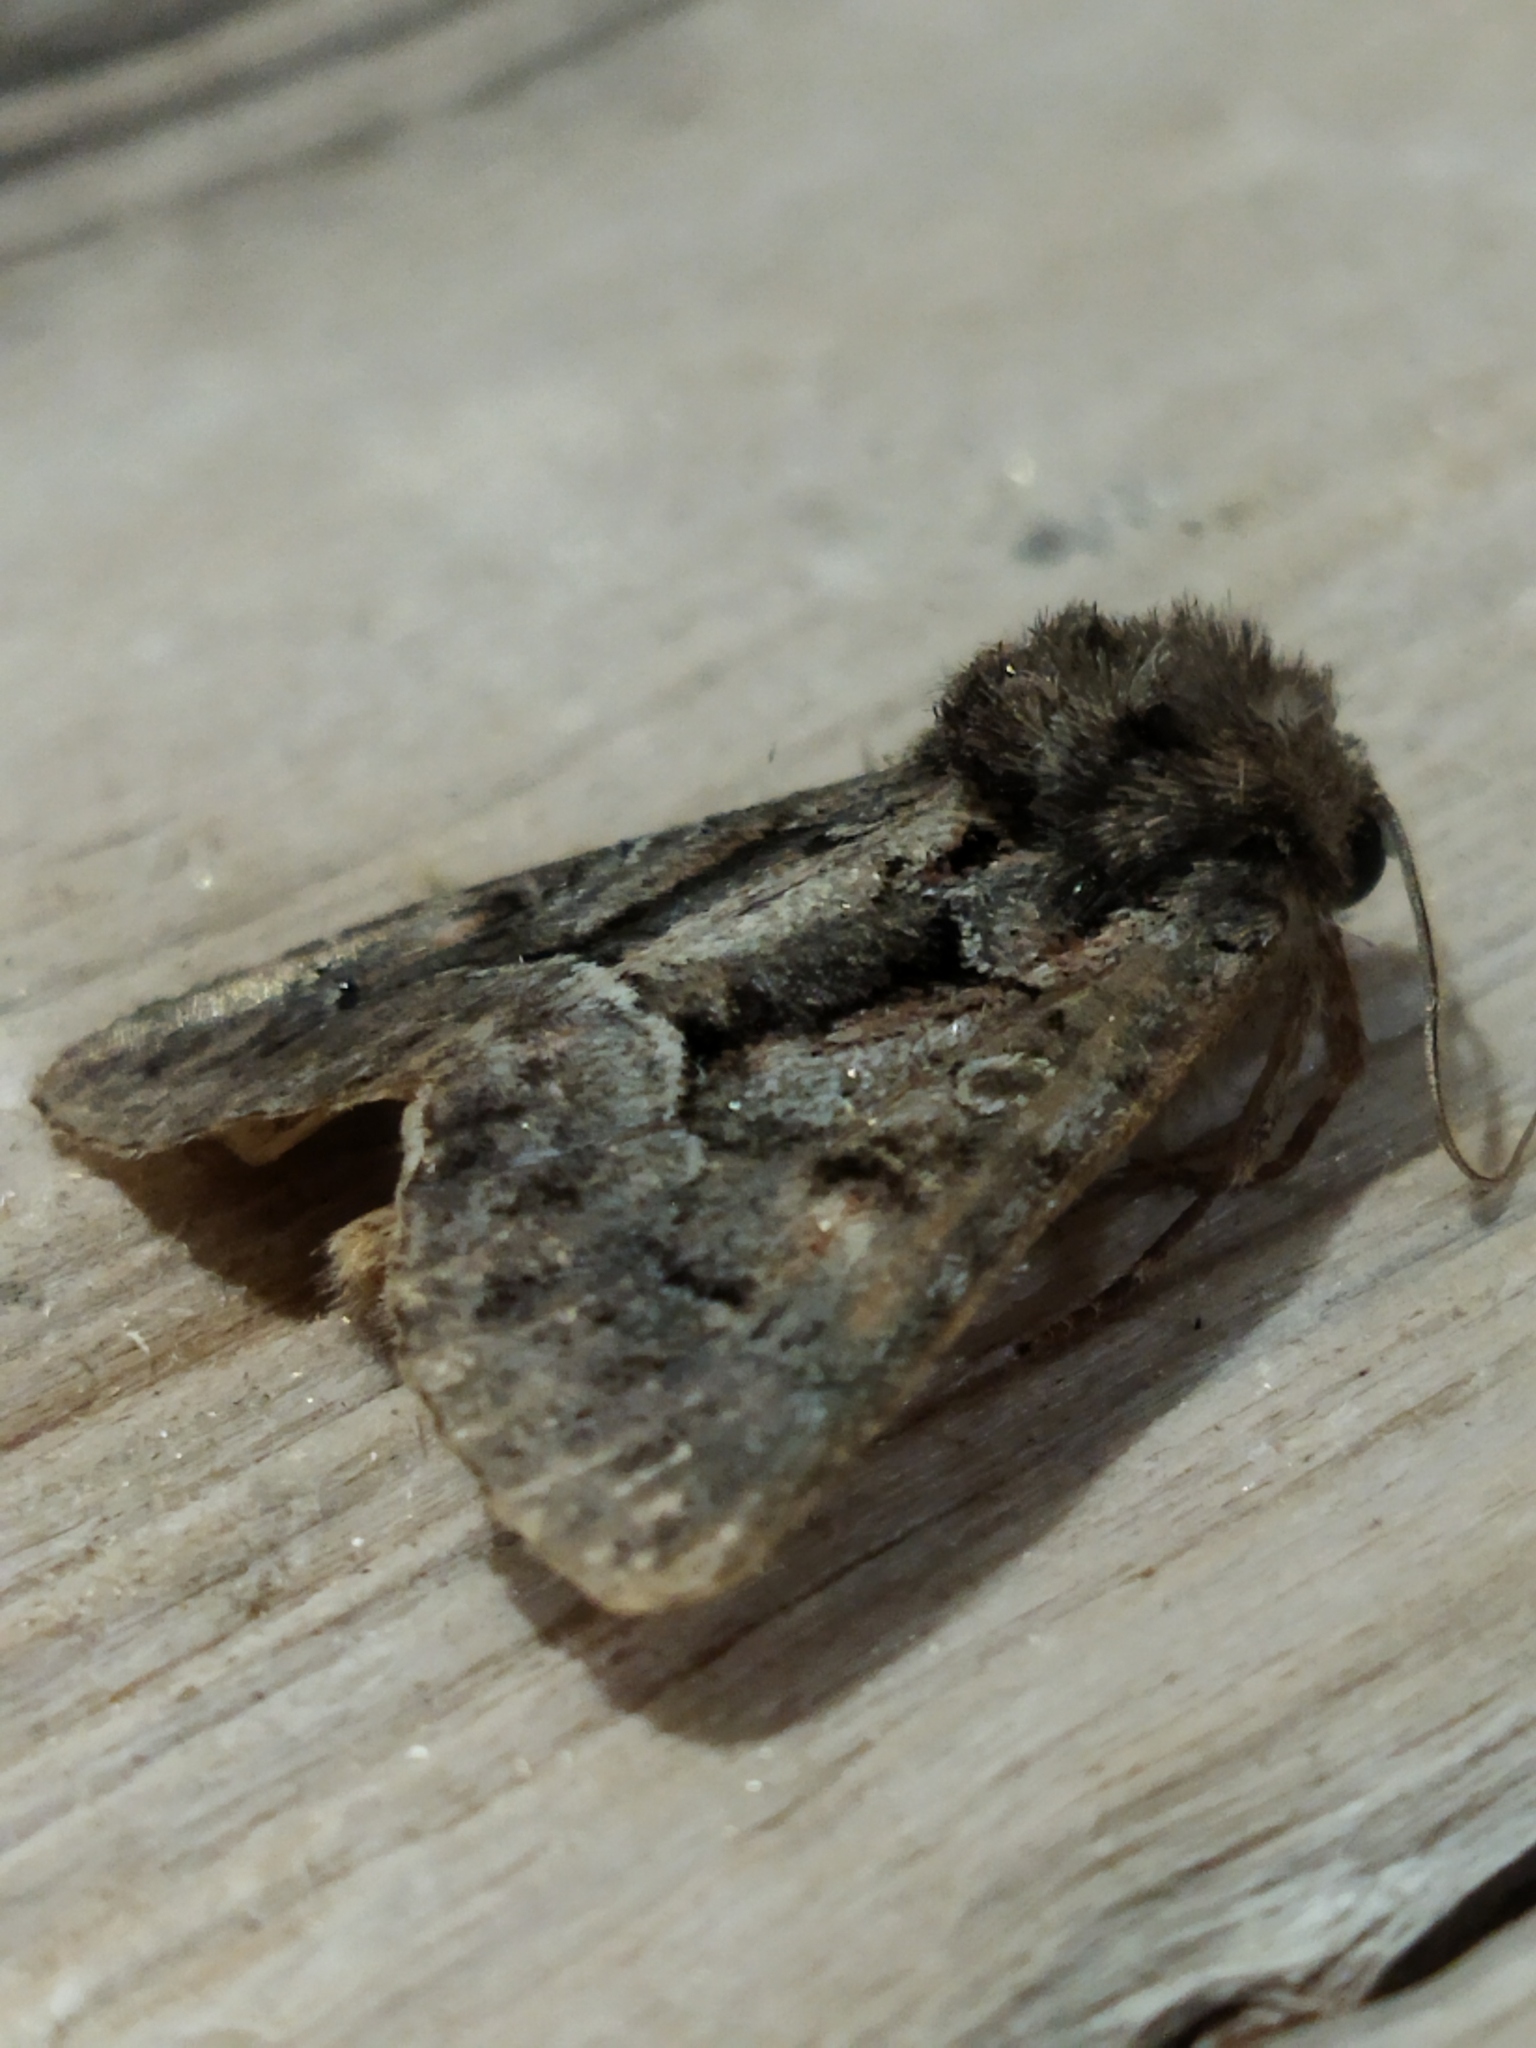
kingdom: Animalia
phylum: Arthropoda
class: Insecta
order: Lepidoptera
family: Noctuidae
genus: Thalpophila
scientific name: Thalpophila matura
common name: Straw underwing
